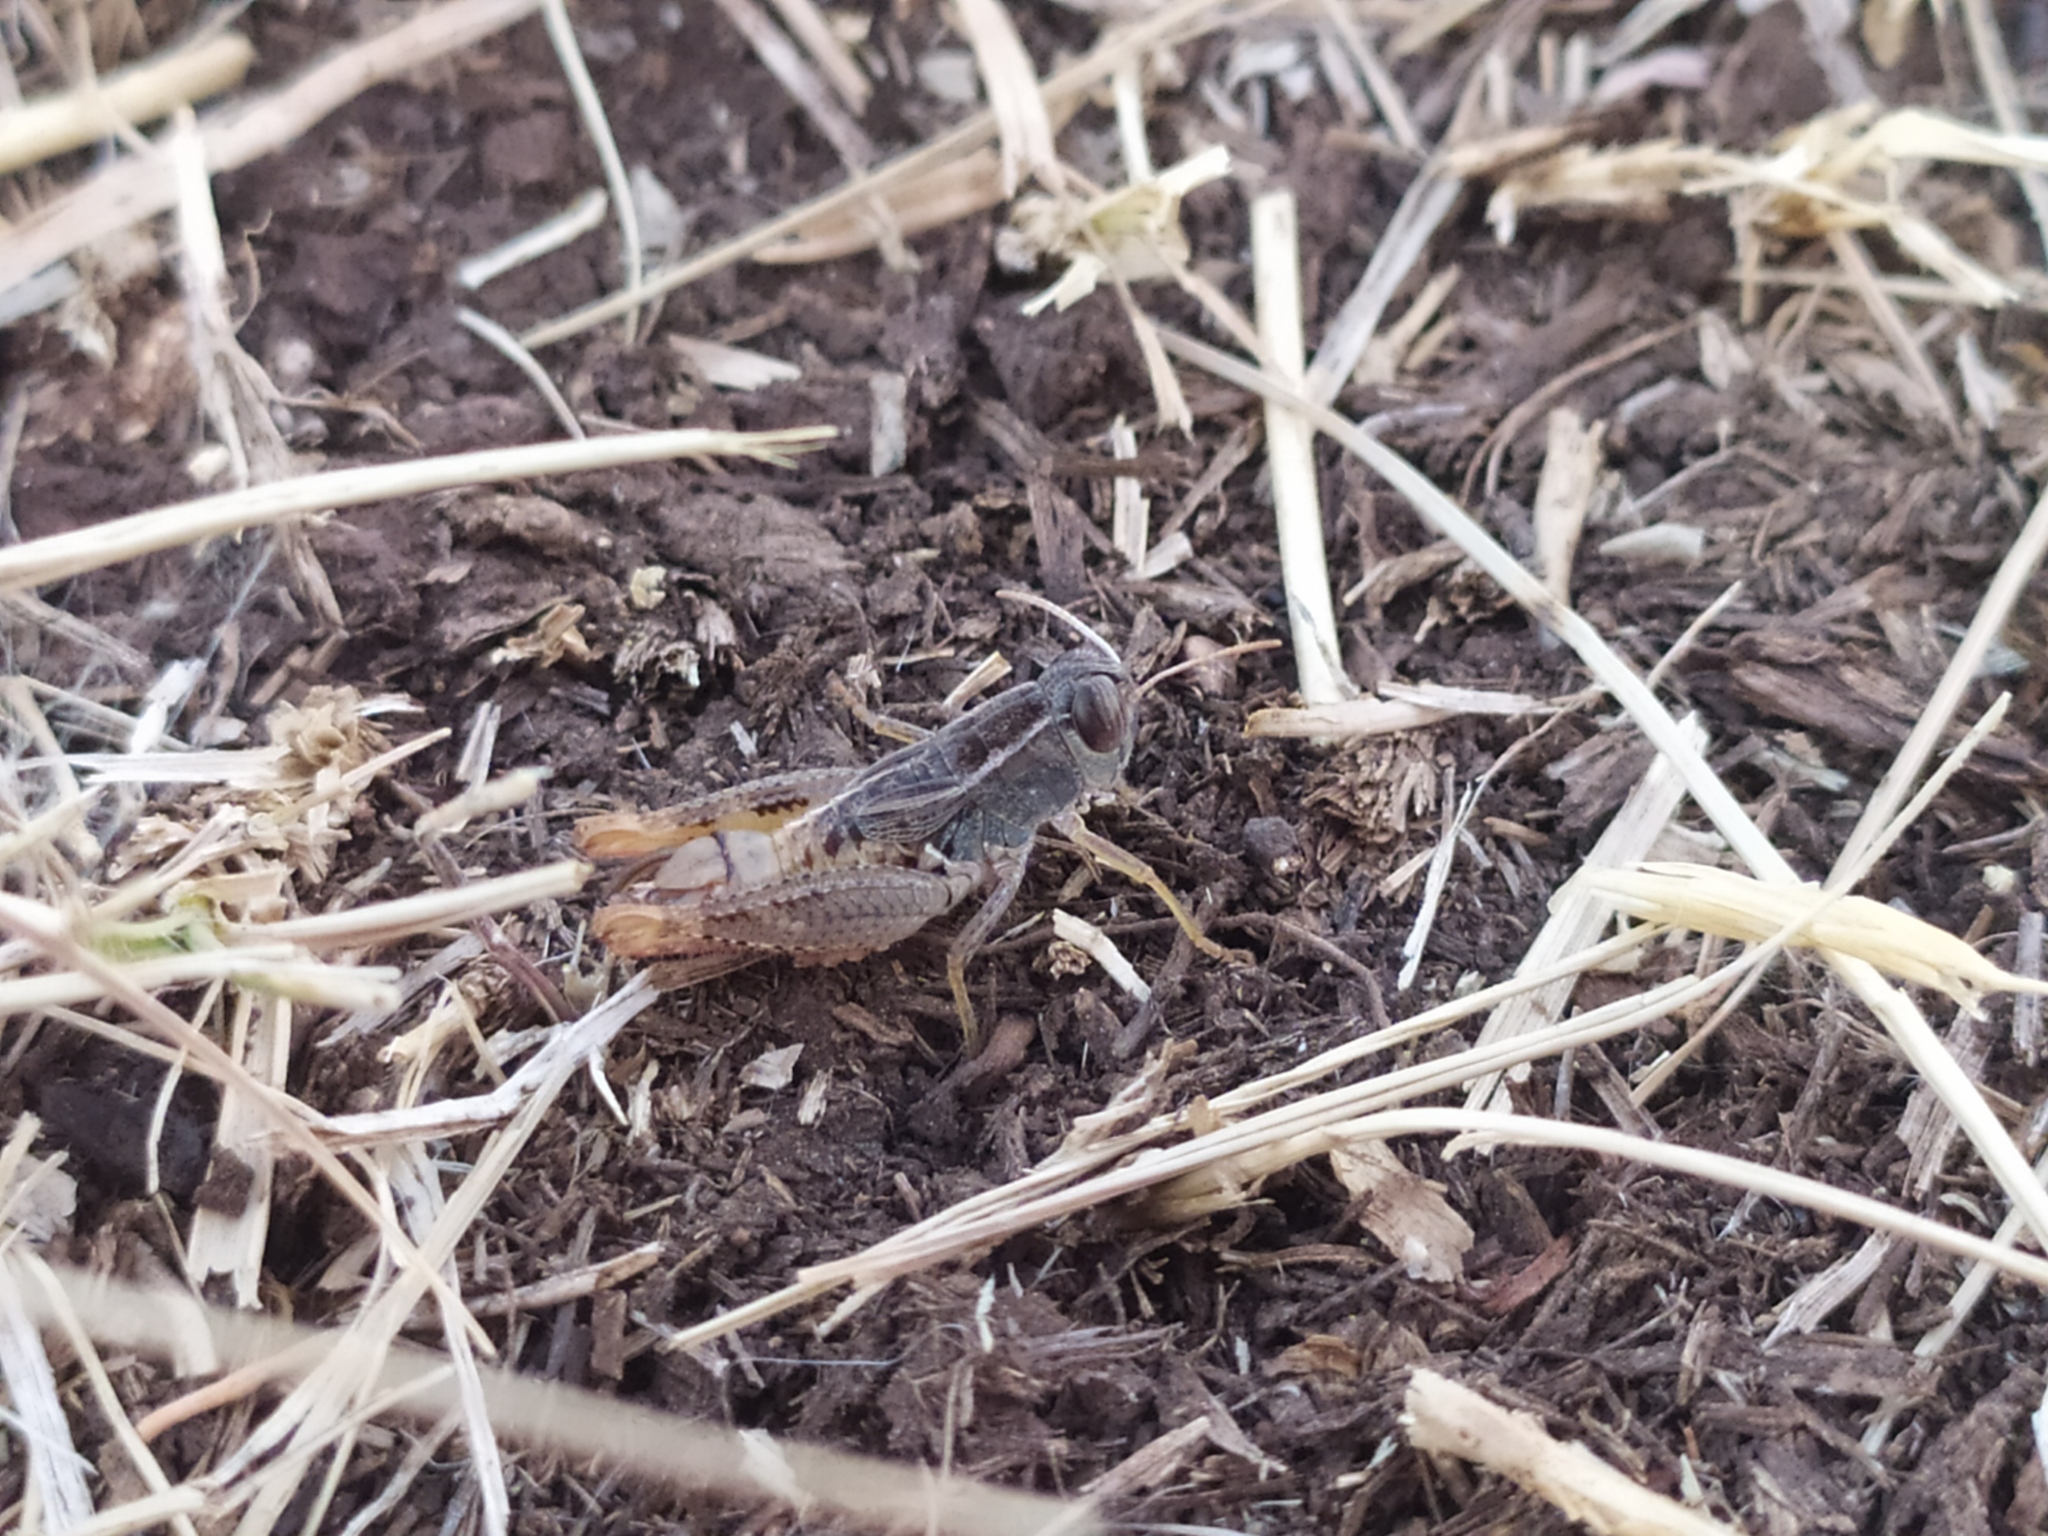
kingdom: Animalia
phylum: Arthropoda
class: Insecta
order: Orthoptera
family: Acrididae
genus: Paracaloptenus
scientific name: Paracaloptenus cristatus
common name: Istrian pincer grasshopper
